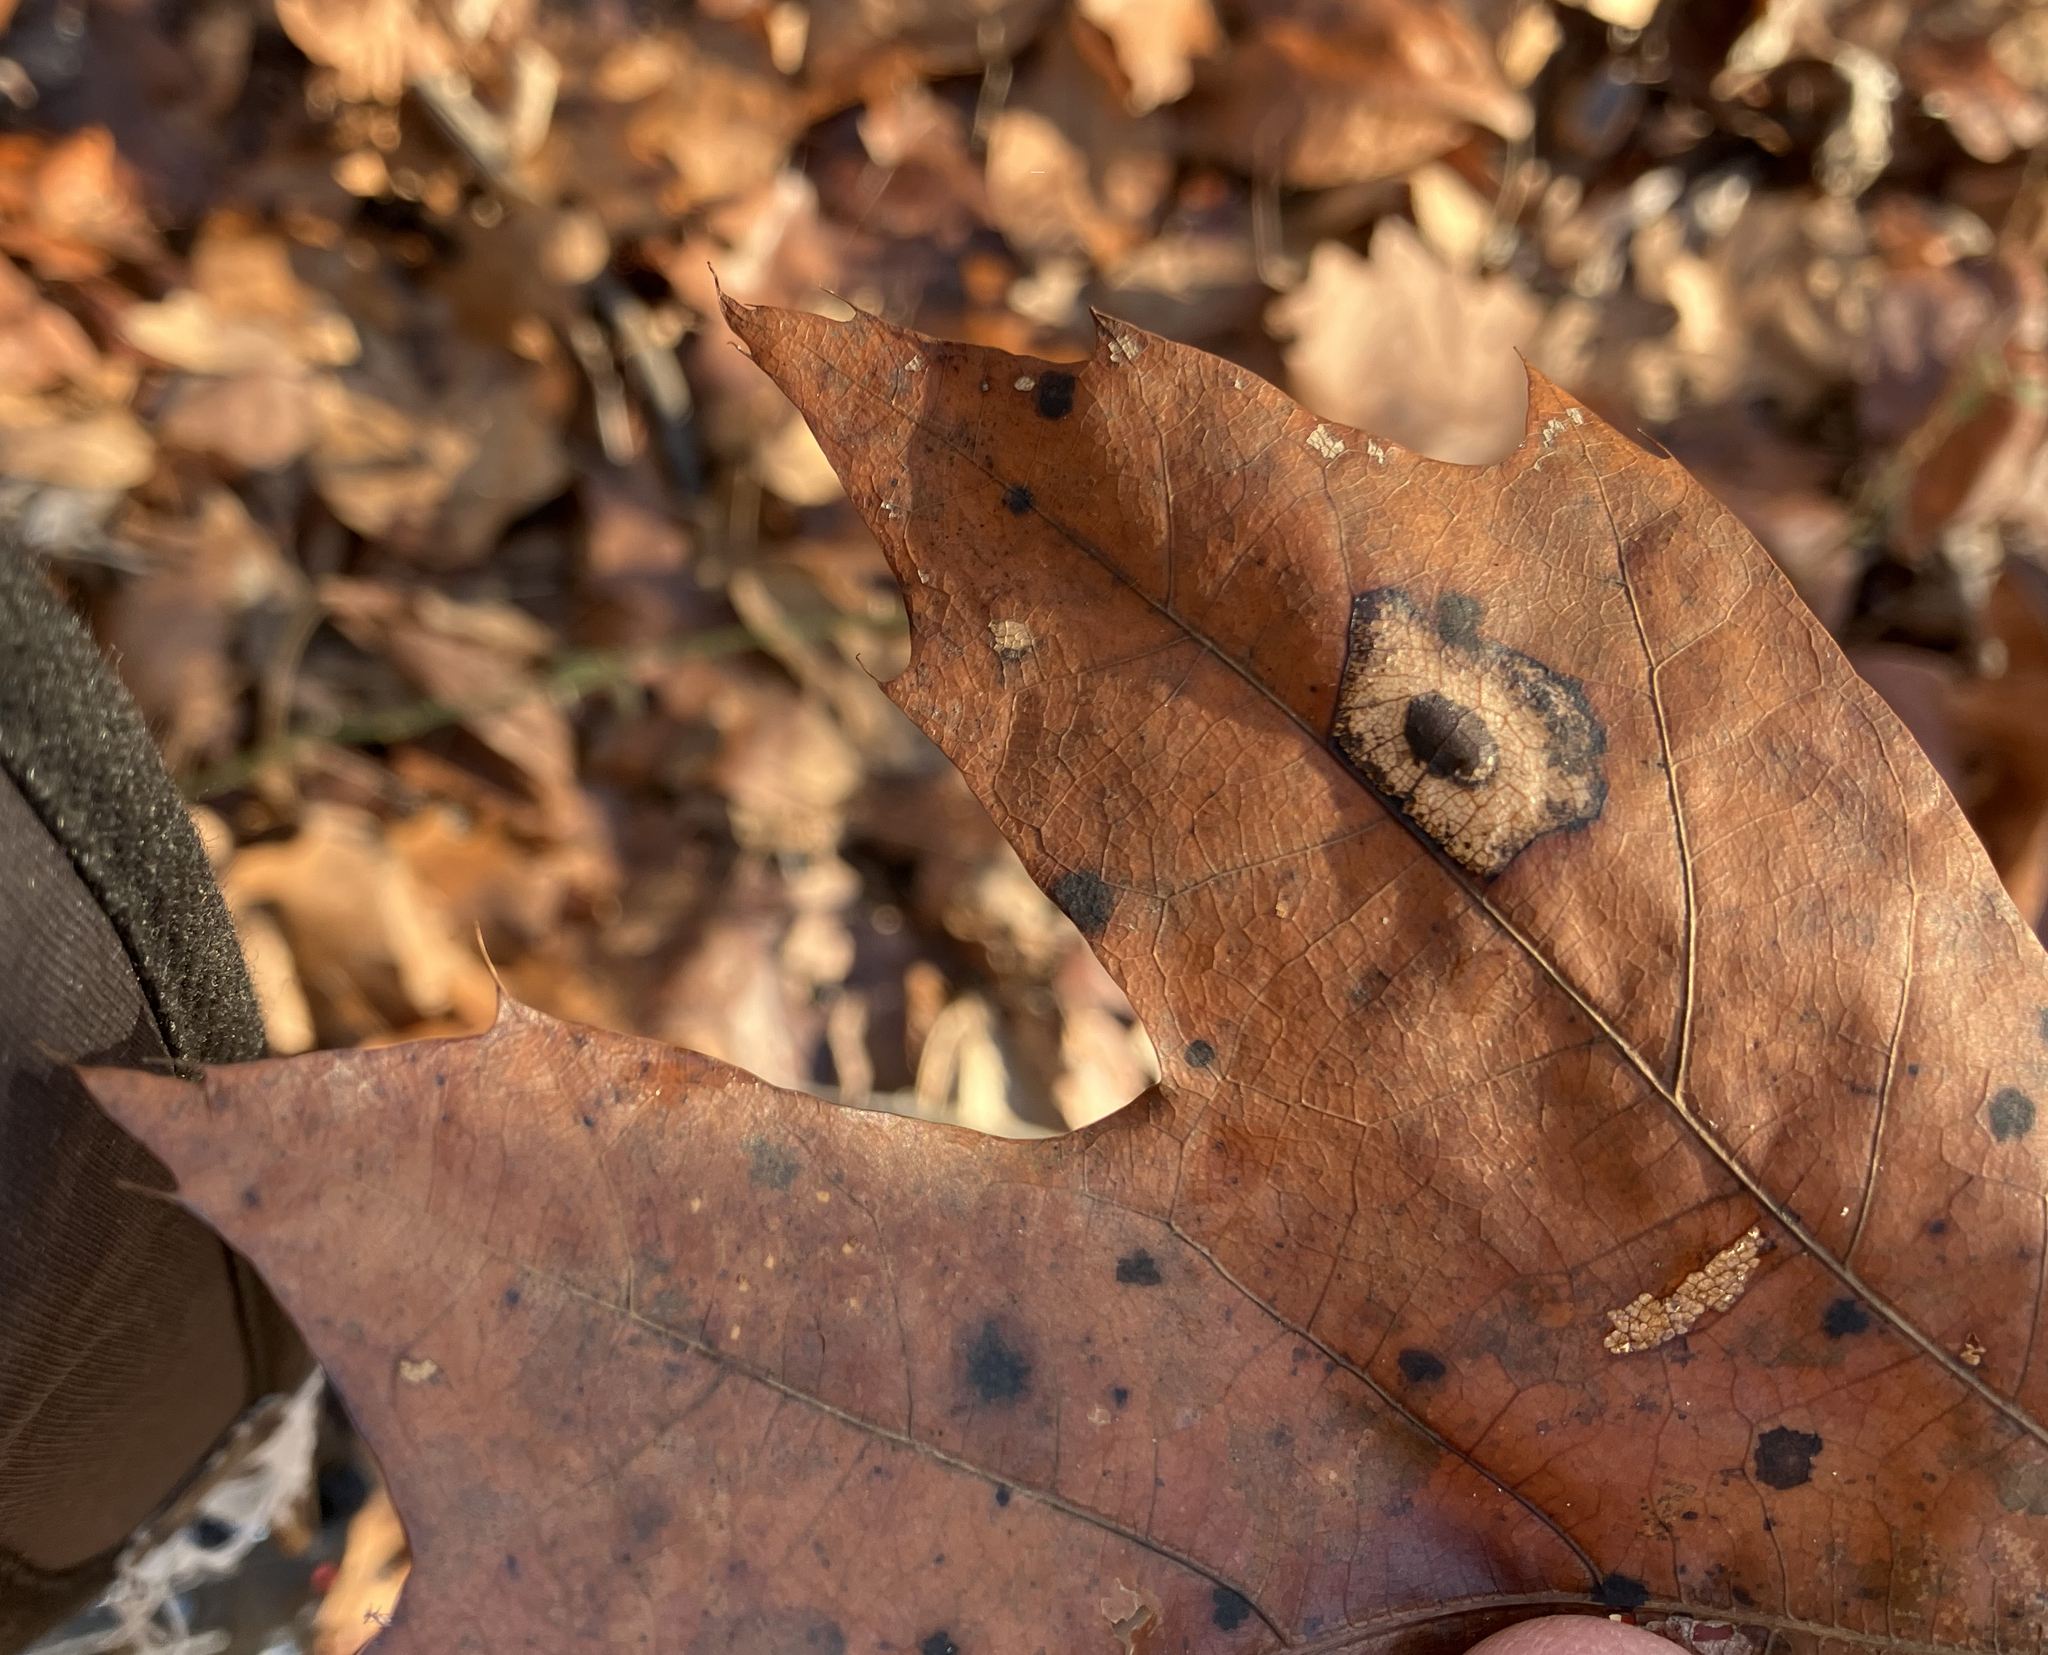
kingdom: Animalia
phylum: Arthropoda
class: Insecta
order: Lepidoptera
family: Gracillariidae
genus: Phyllonorycter
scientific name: Phyllonorycter basistrigella
